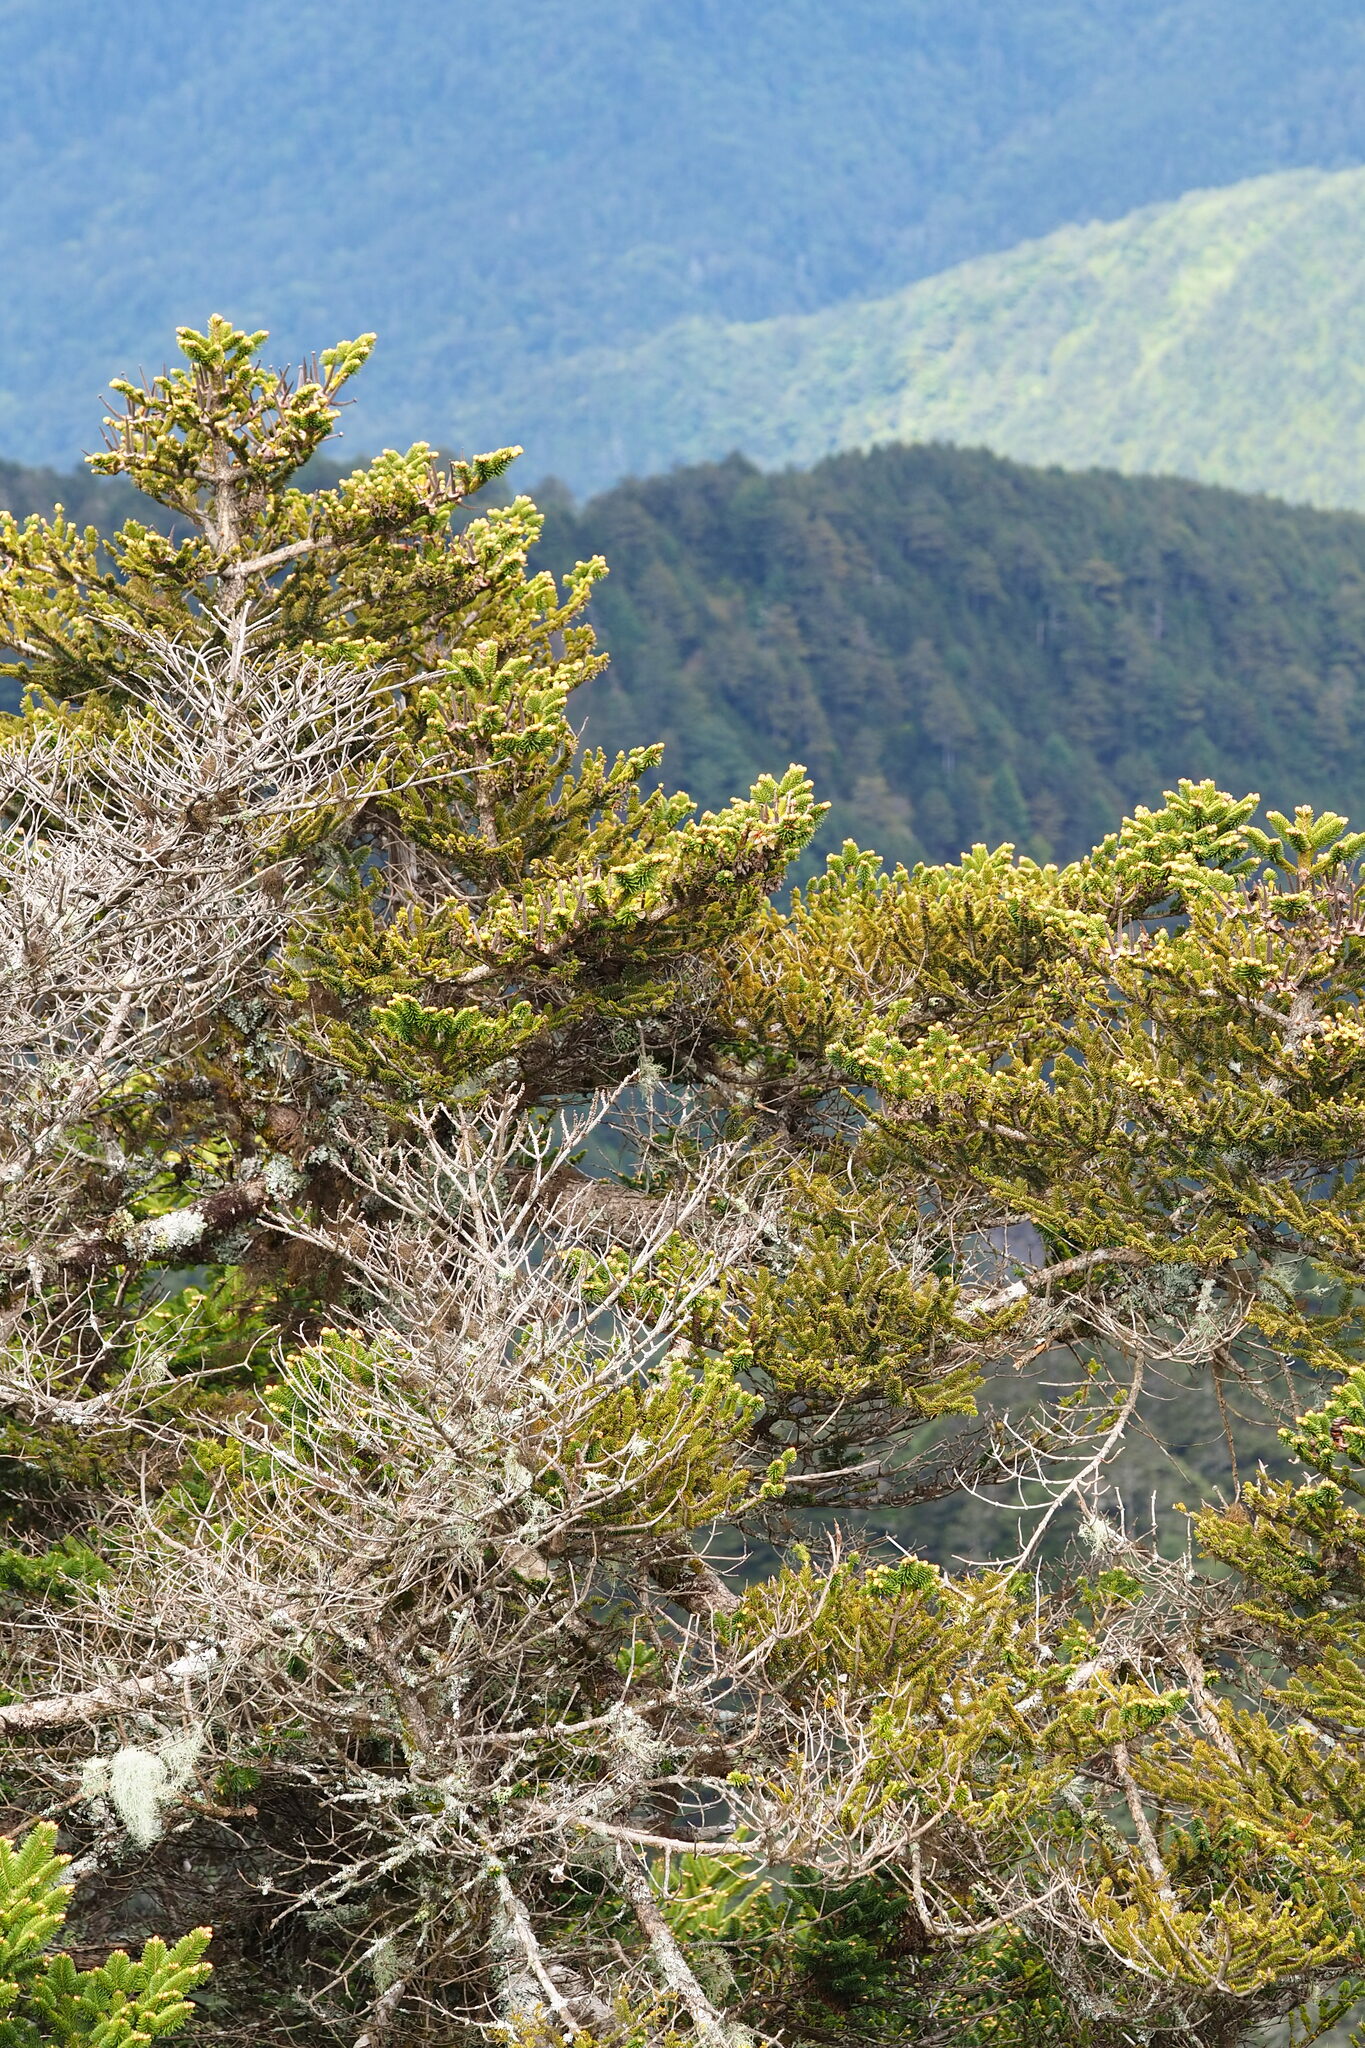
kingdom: Plantae
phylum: Tracheophyta
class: Pinopsida
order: Pinales
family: Pinaceae
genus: Abies
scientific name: Abies kawakamii
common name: Taiwan fir
